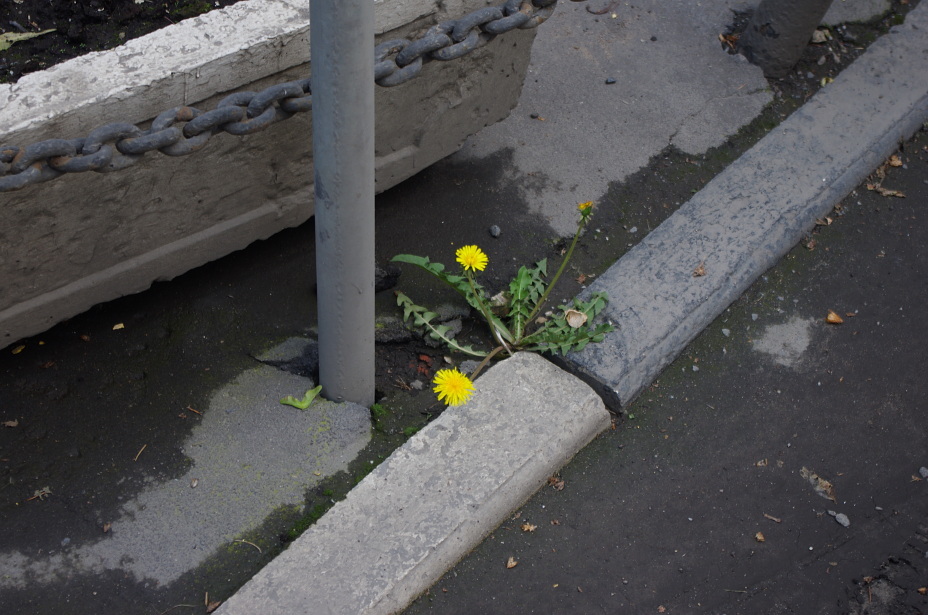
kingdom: Plantae
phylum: Tracheophyta
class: Magnoliopsida
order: Asterales
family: Asteraceae
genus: Taraxacum
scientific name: Taraxacum officinale
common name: Common dandelion
